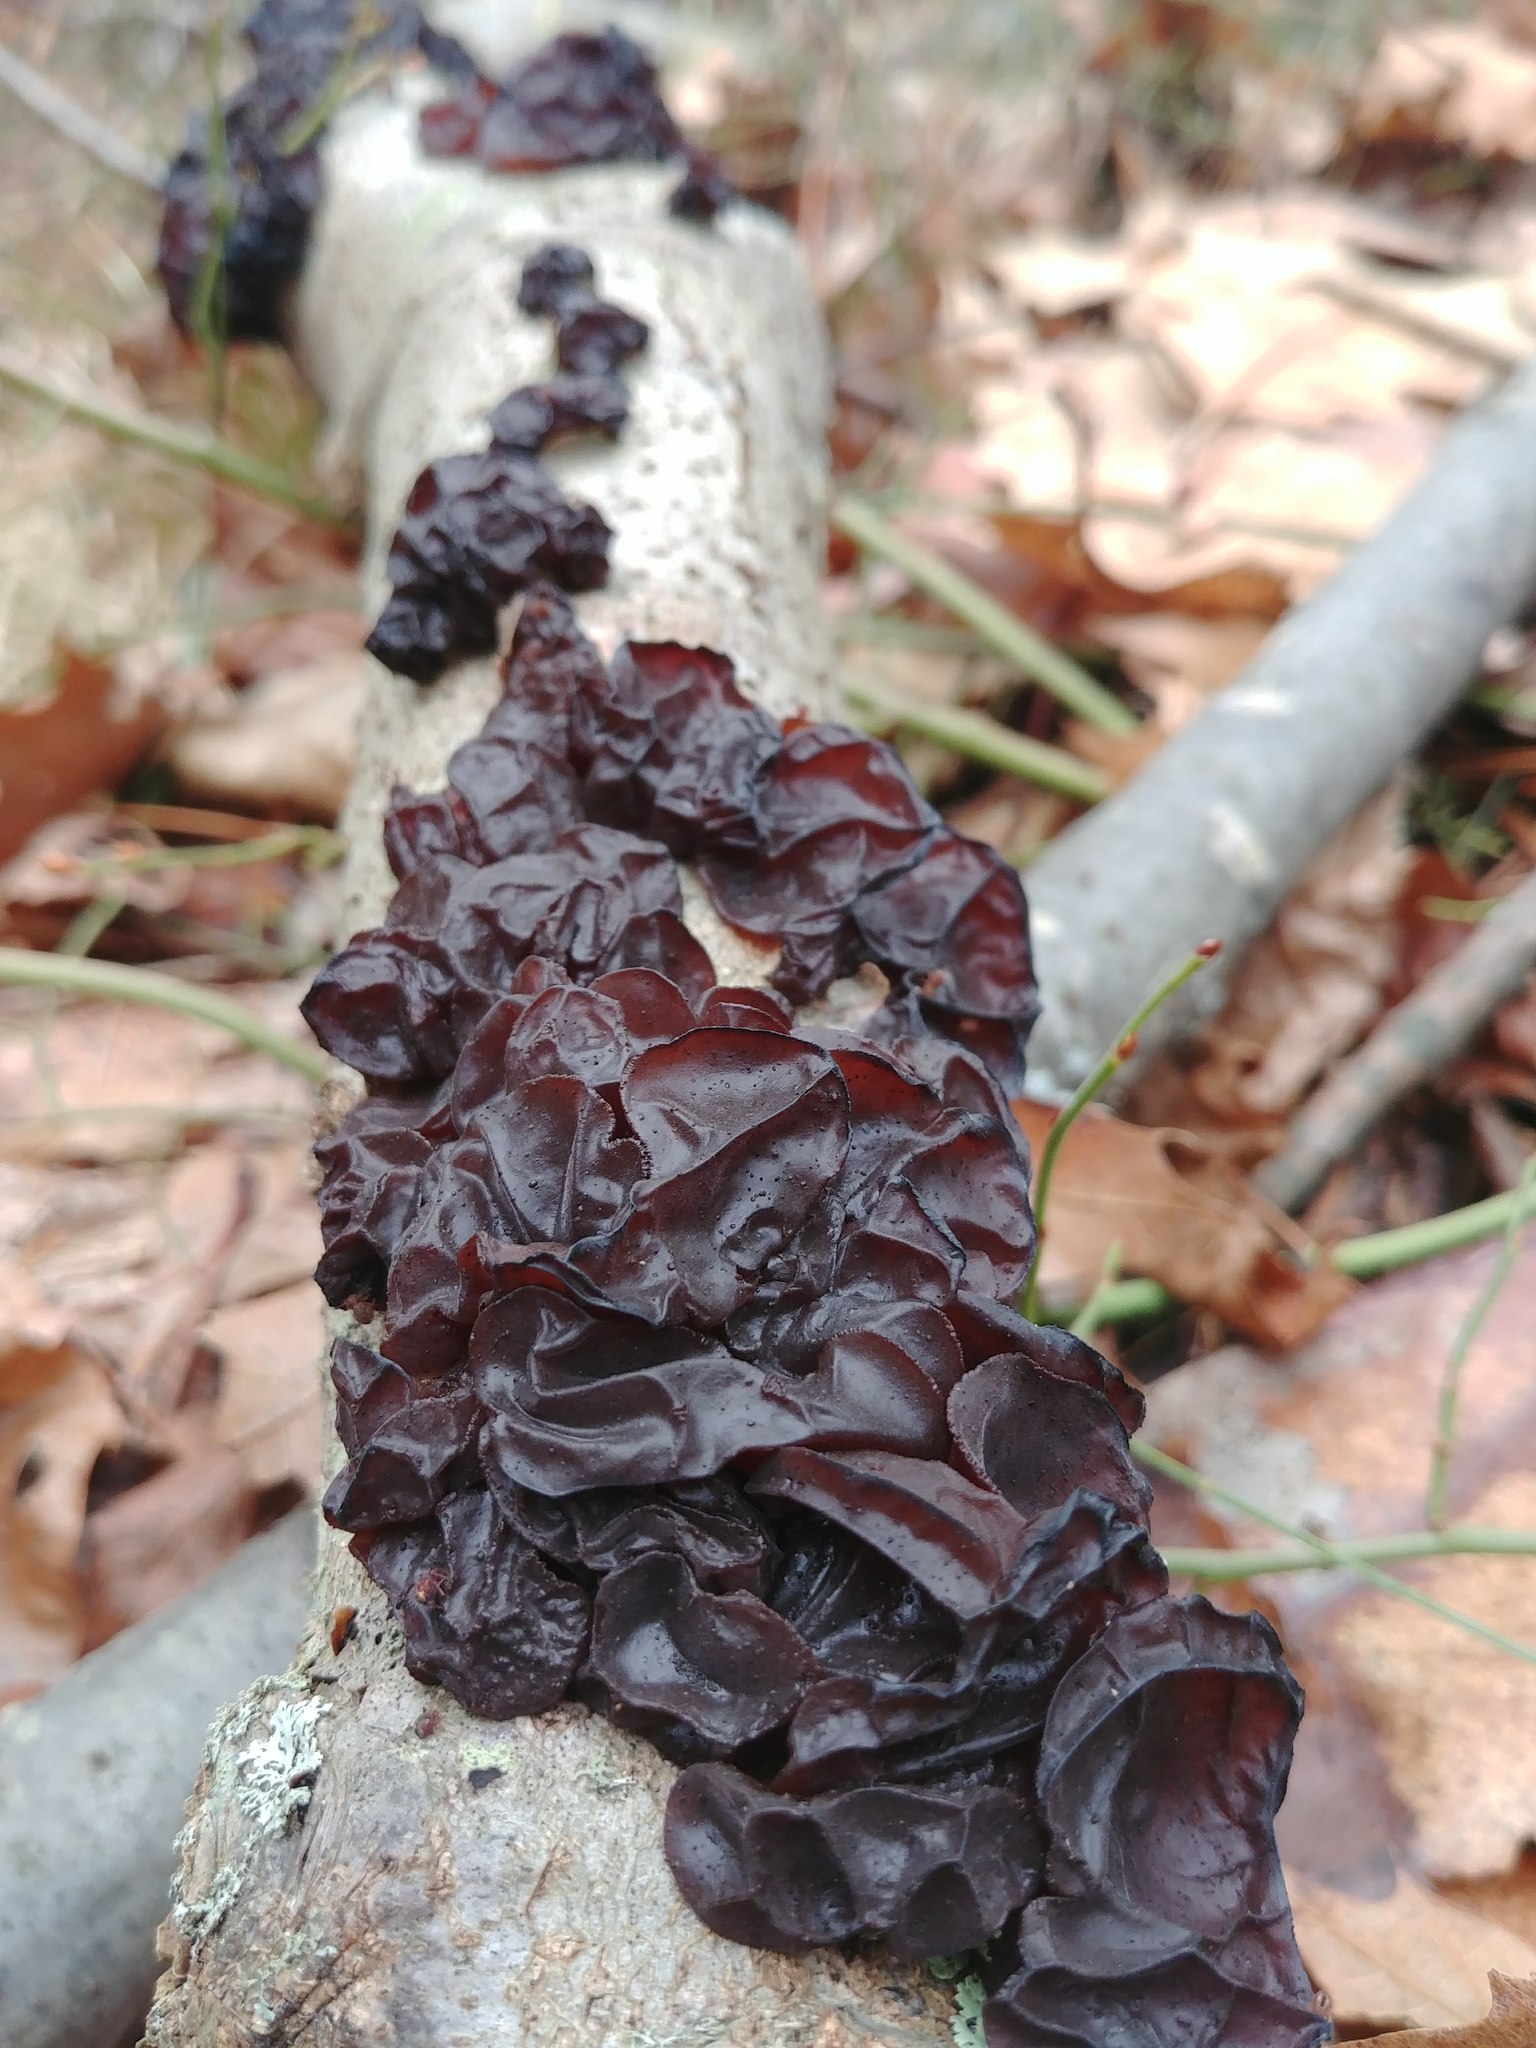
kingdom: Fungi
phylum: Basidiomycota
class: Agaricomycetes
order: Auriculariales
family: Auriculariaceae
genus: Exidia
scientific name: Exidia
